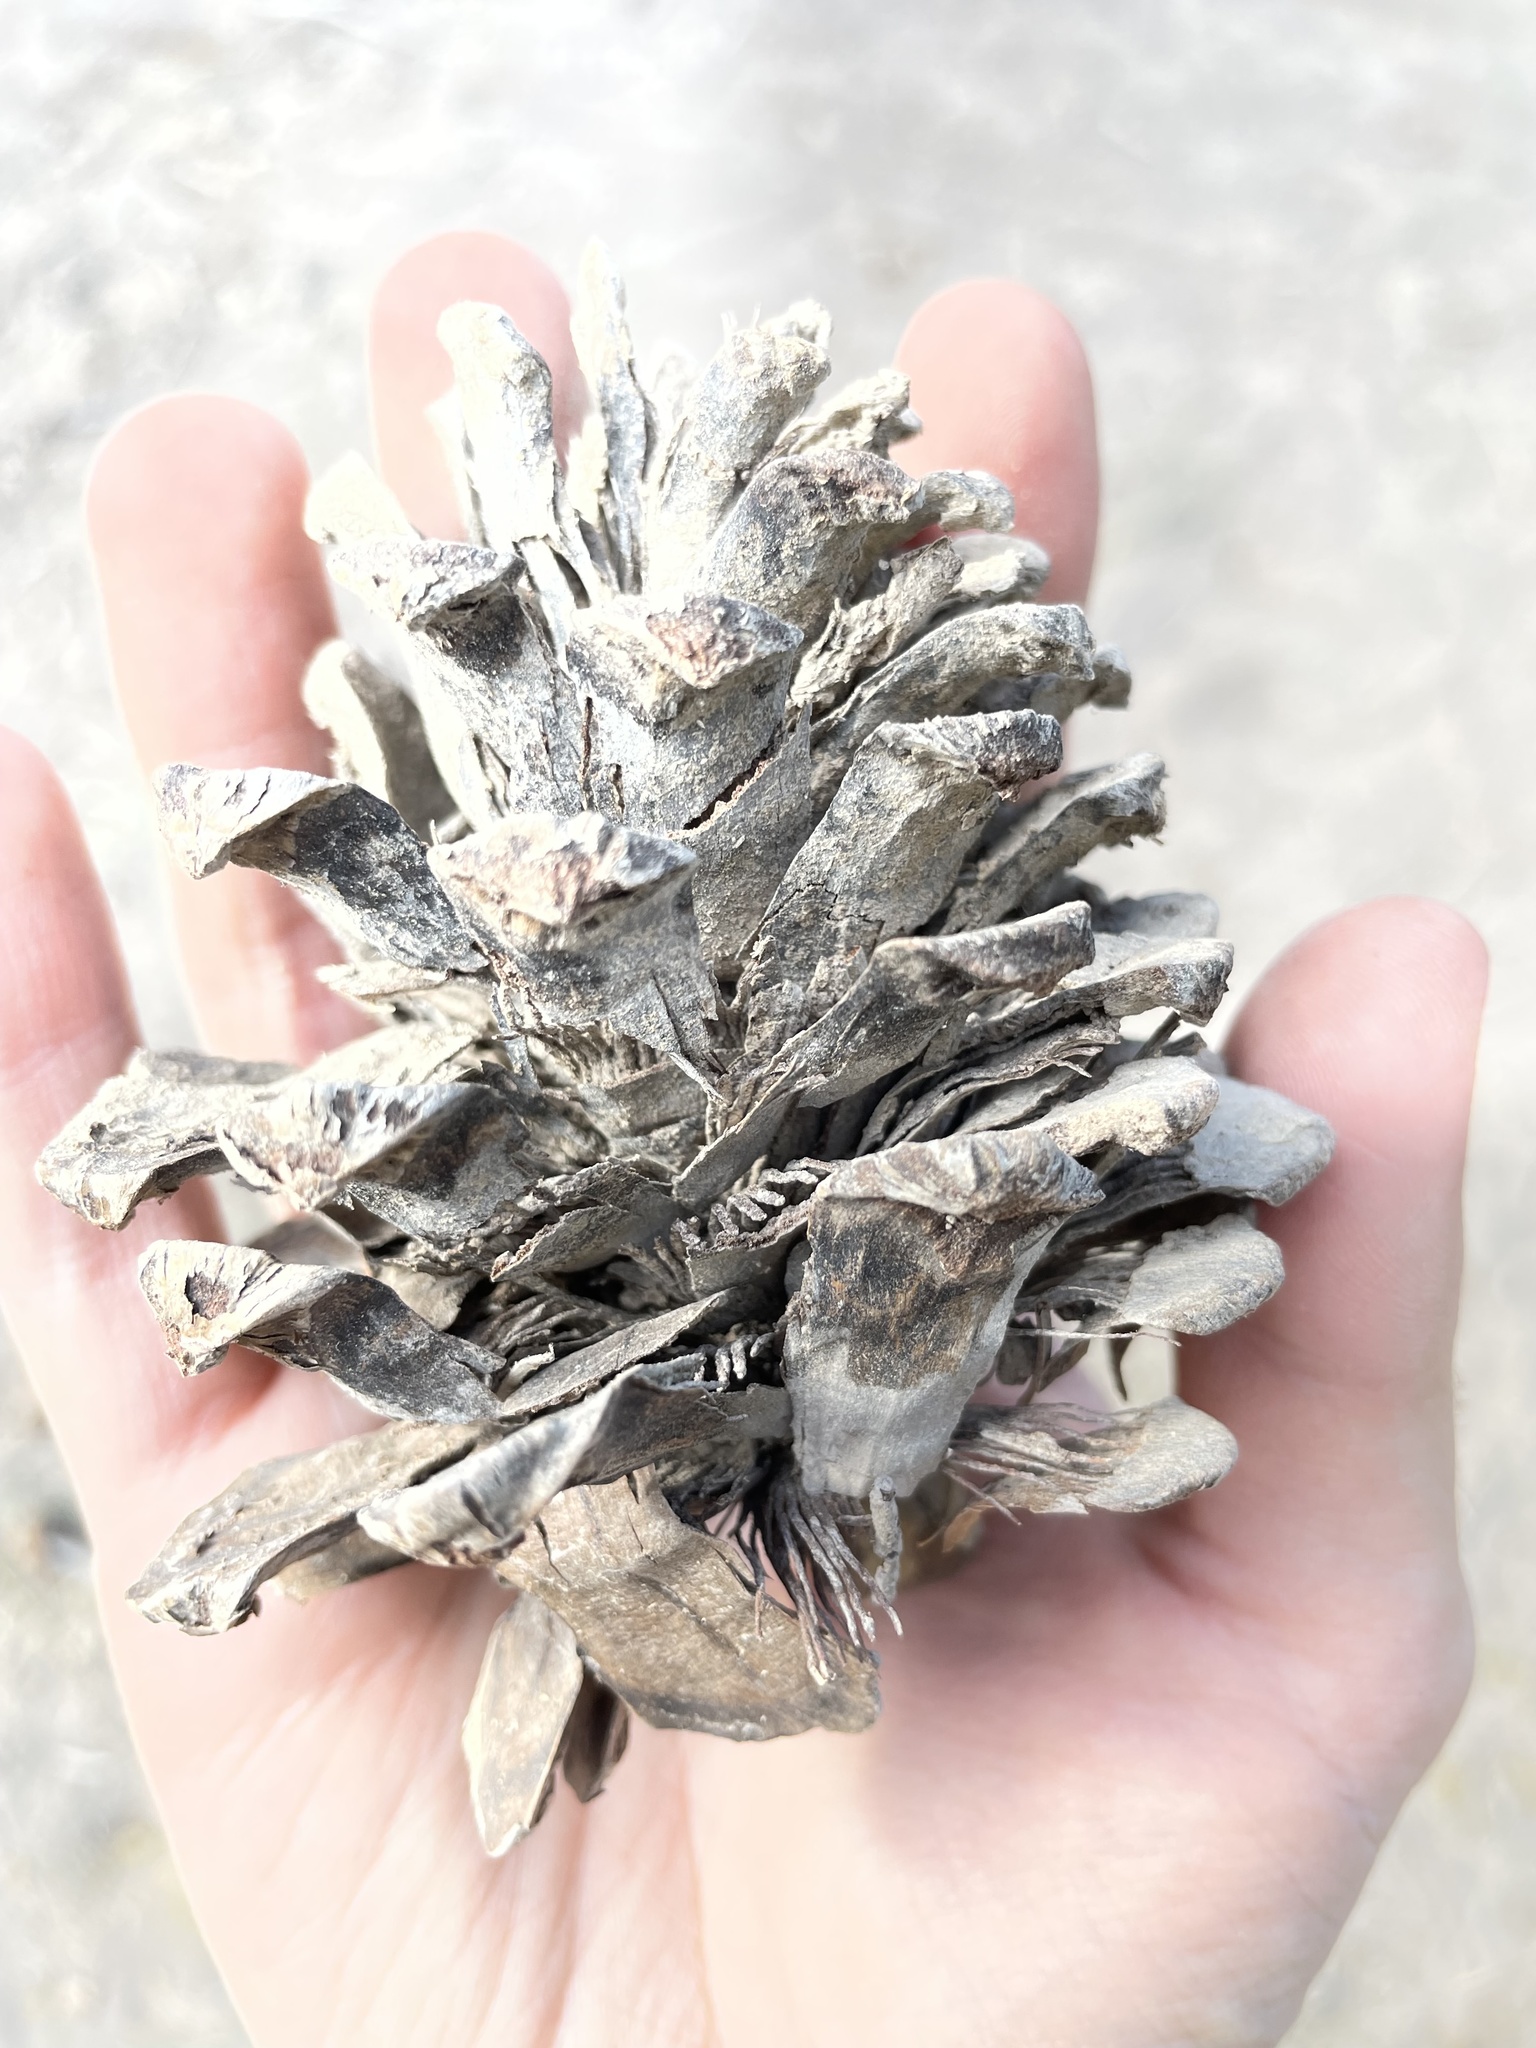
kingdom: Plantae
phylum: Tracheophyta
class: Pinopsida
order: Pinales
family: Pinaceae
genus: Pinus
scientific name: Pinus ponderosa
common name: Western yellow-pine
